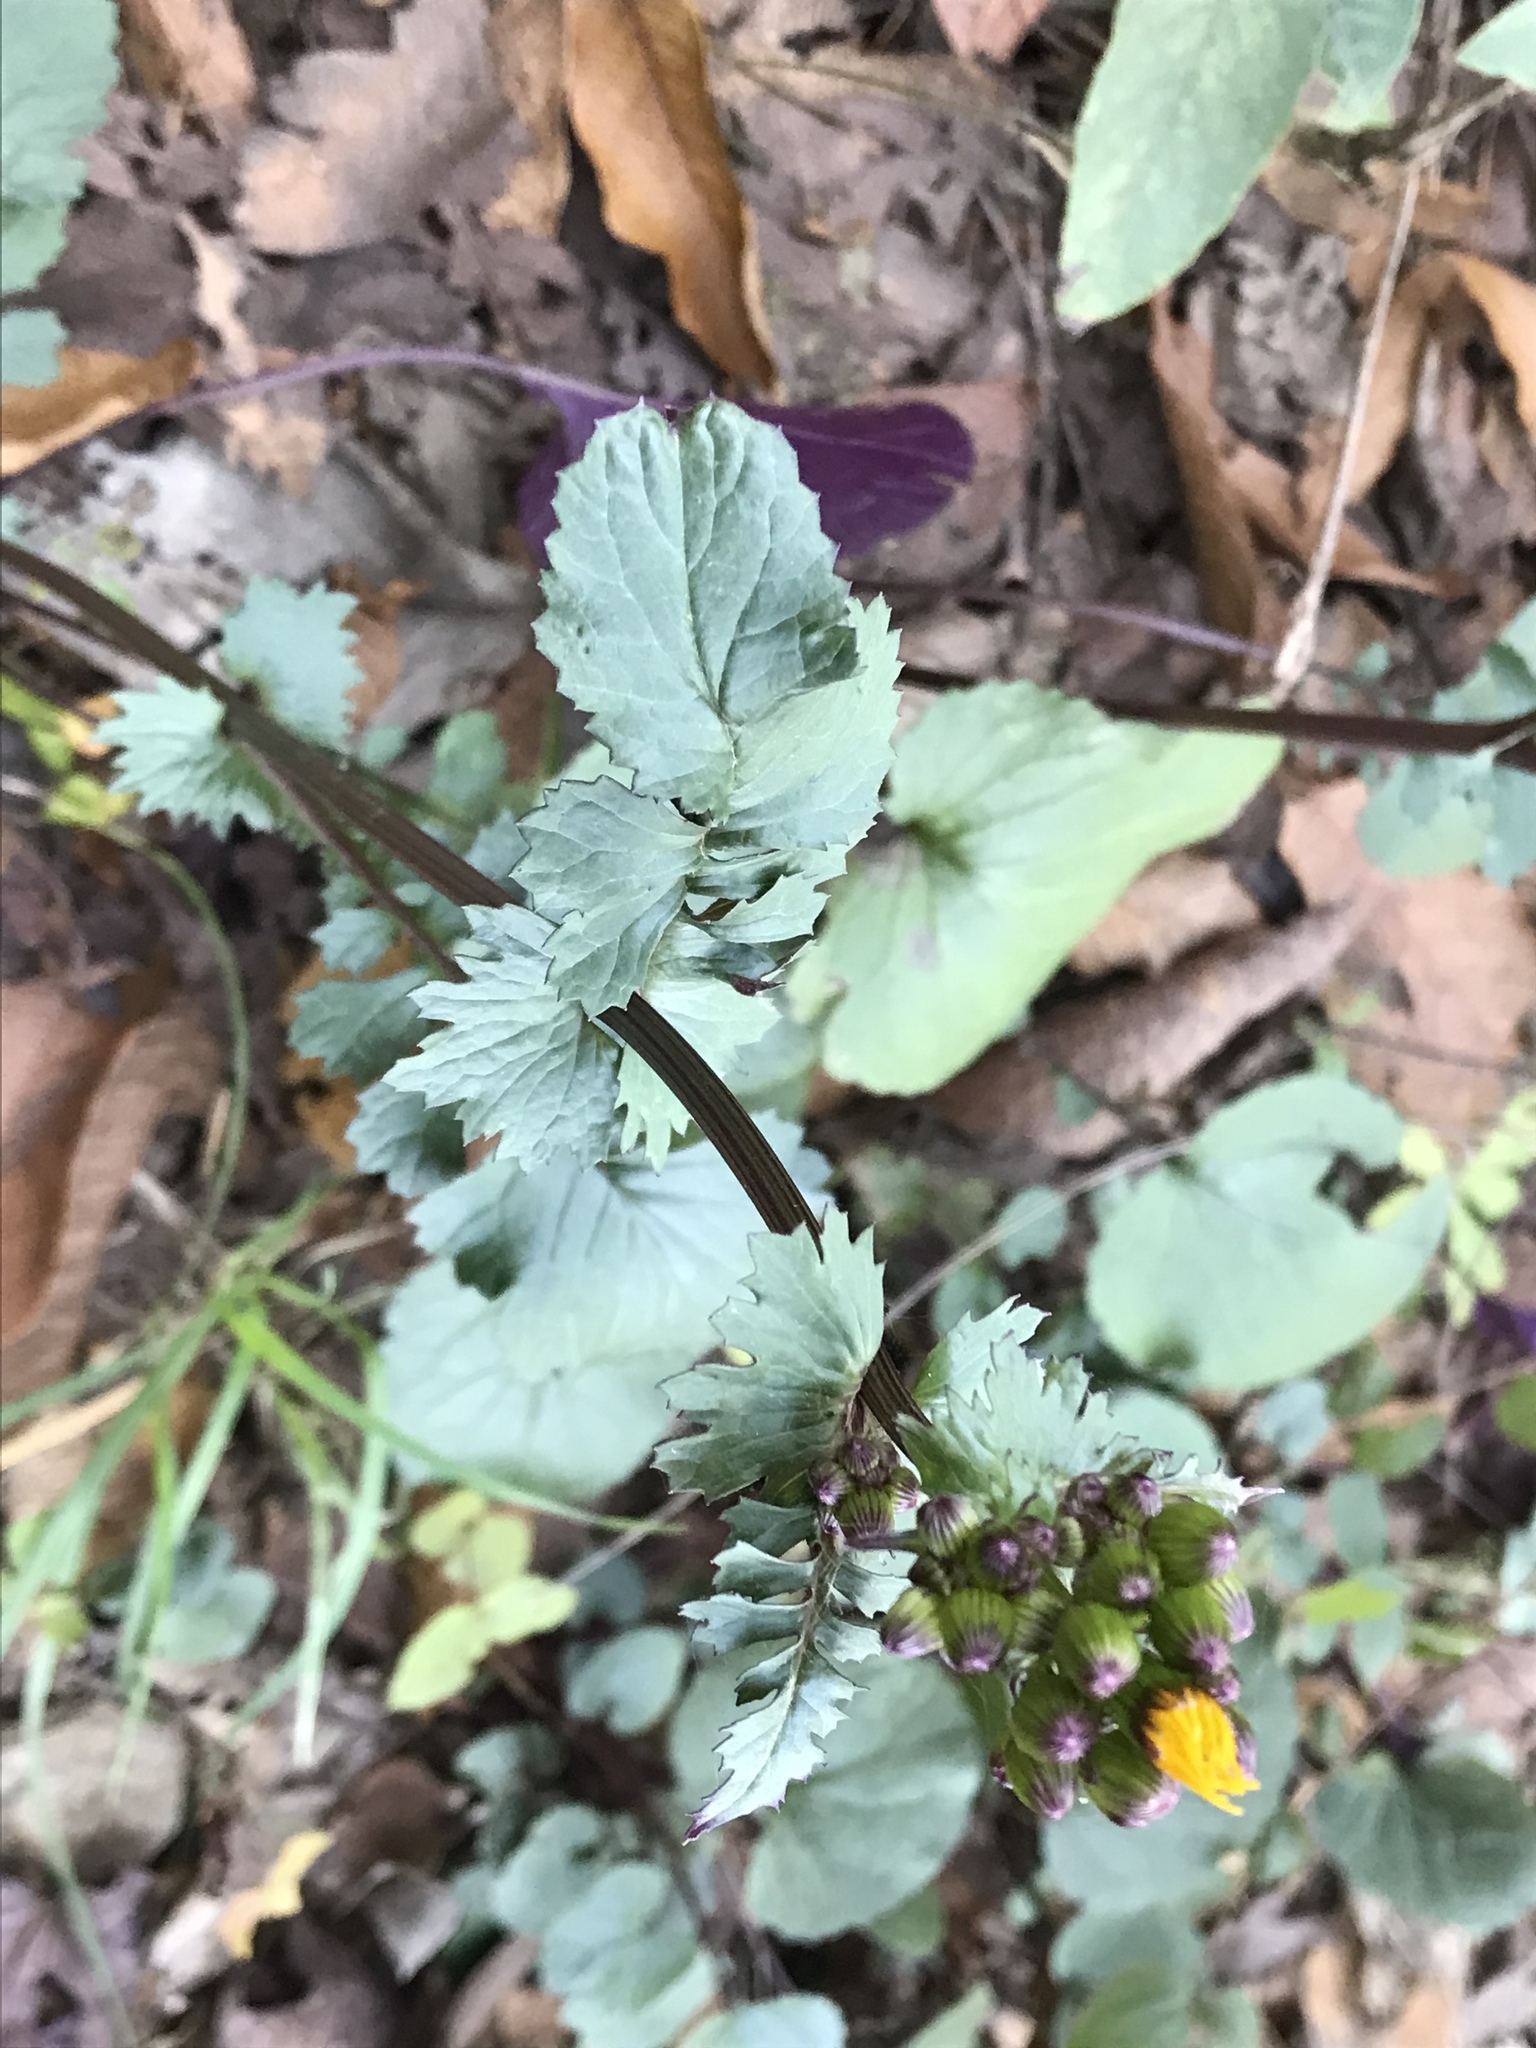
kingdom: Plantae
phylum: Tracheophyta
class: Magnoliopsida
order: Asterales
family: Asteraceae
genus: Packera
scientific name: Packera coahuilensis
